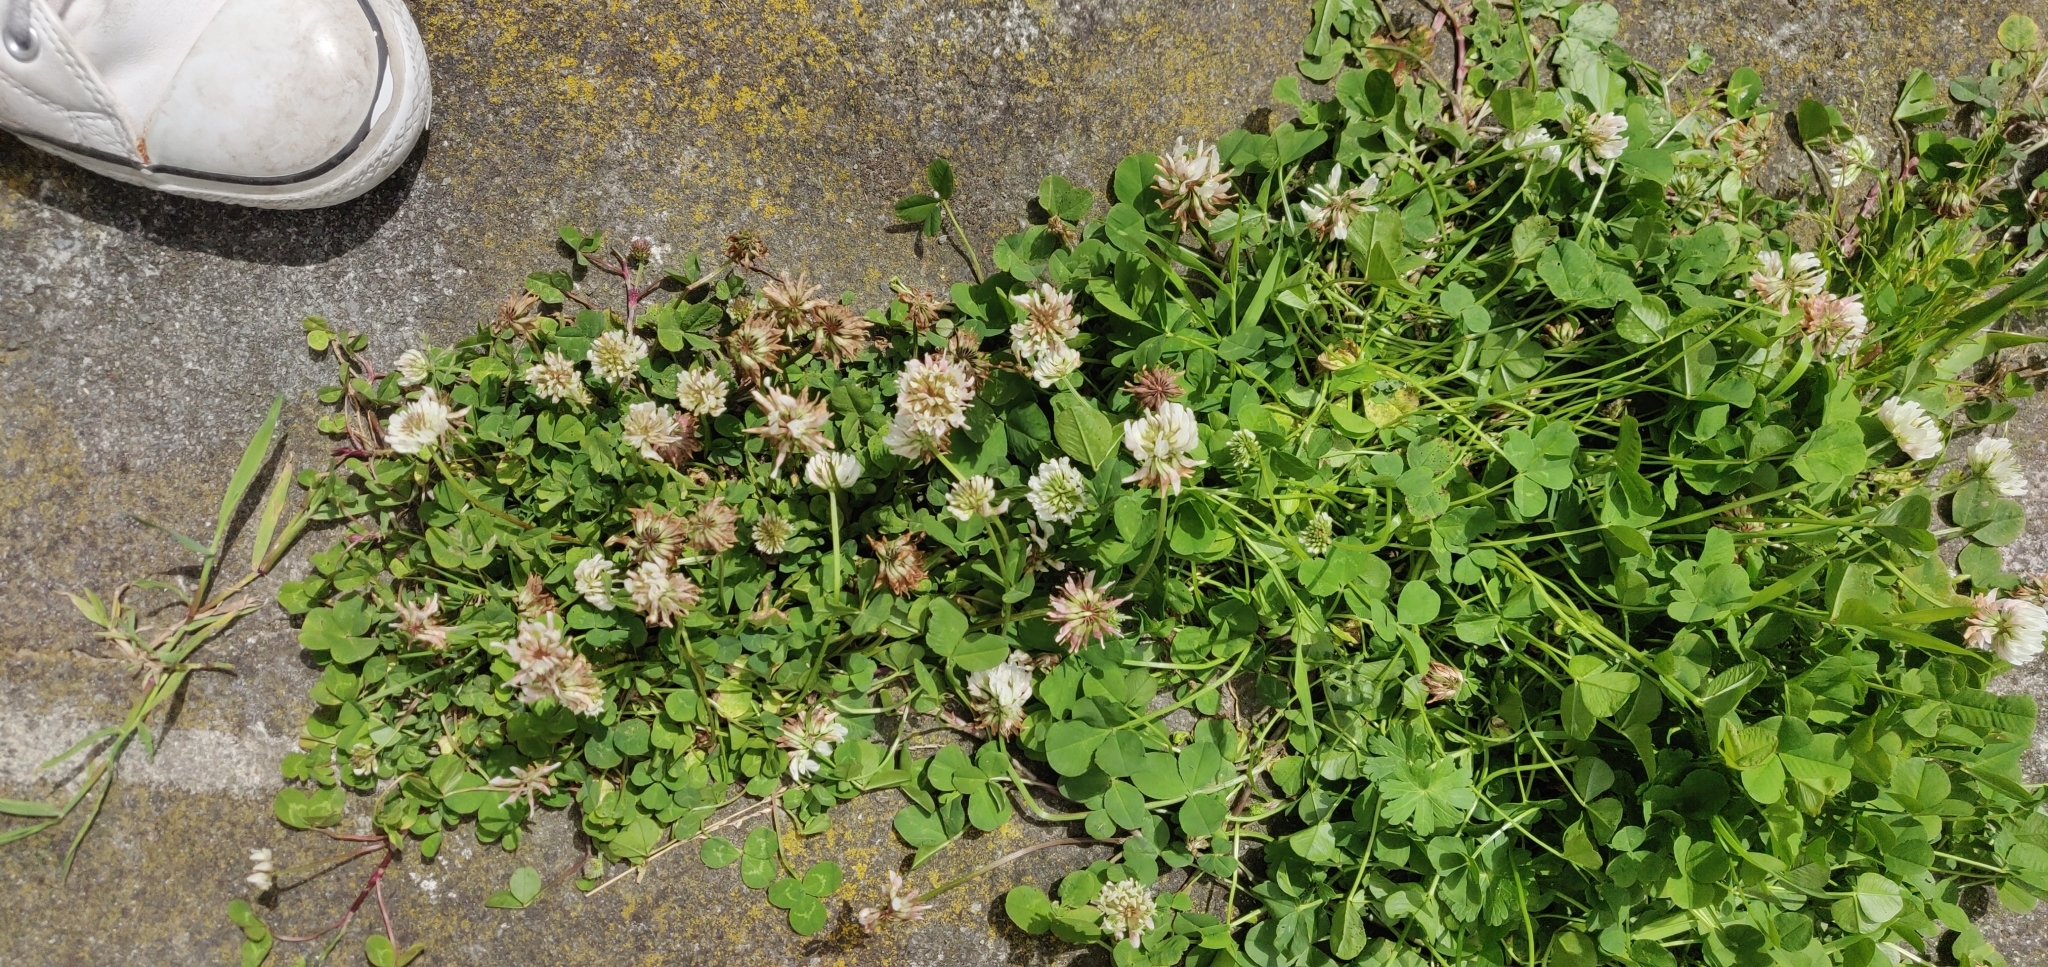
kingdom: Plantae
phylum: Tracheophyta
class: Magnoliopsida
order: Fabales
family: Fabaceae
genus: Trifolium
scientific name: Trifolium repens
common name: White clover
